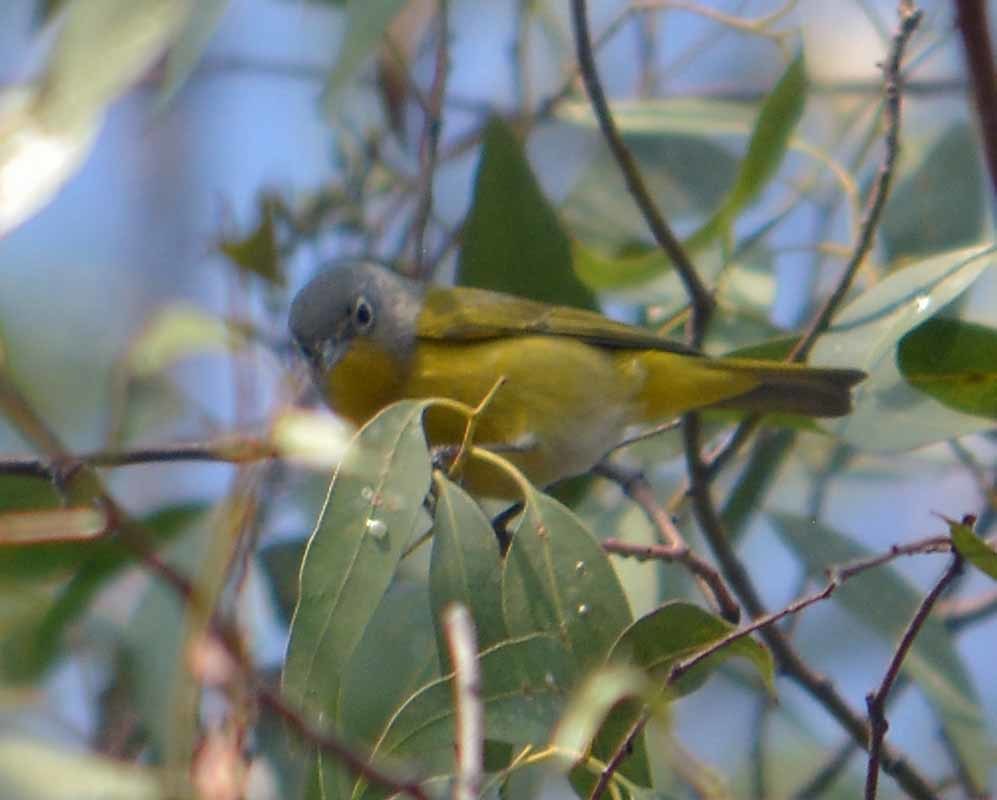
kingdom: Animalia
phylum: Chordata
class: Aves
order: Passeriformes
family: Parulidae
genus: Leiothlypis
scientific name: Leiothlypis ruficapilla
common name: Nashville warbler
